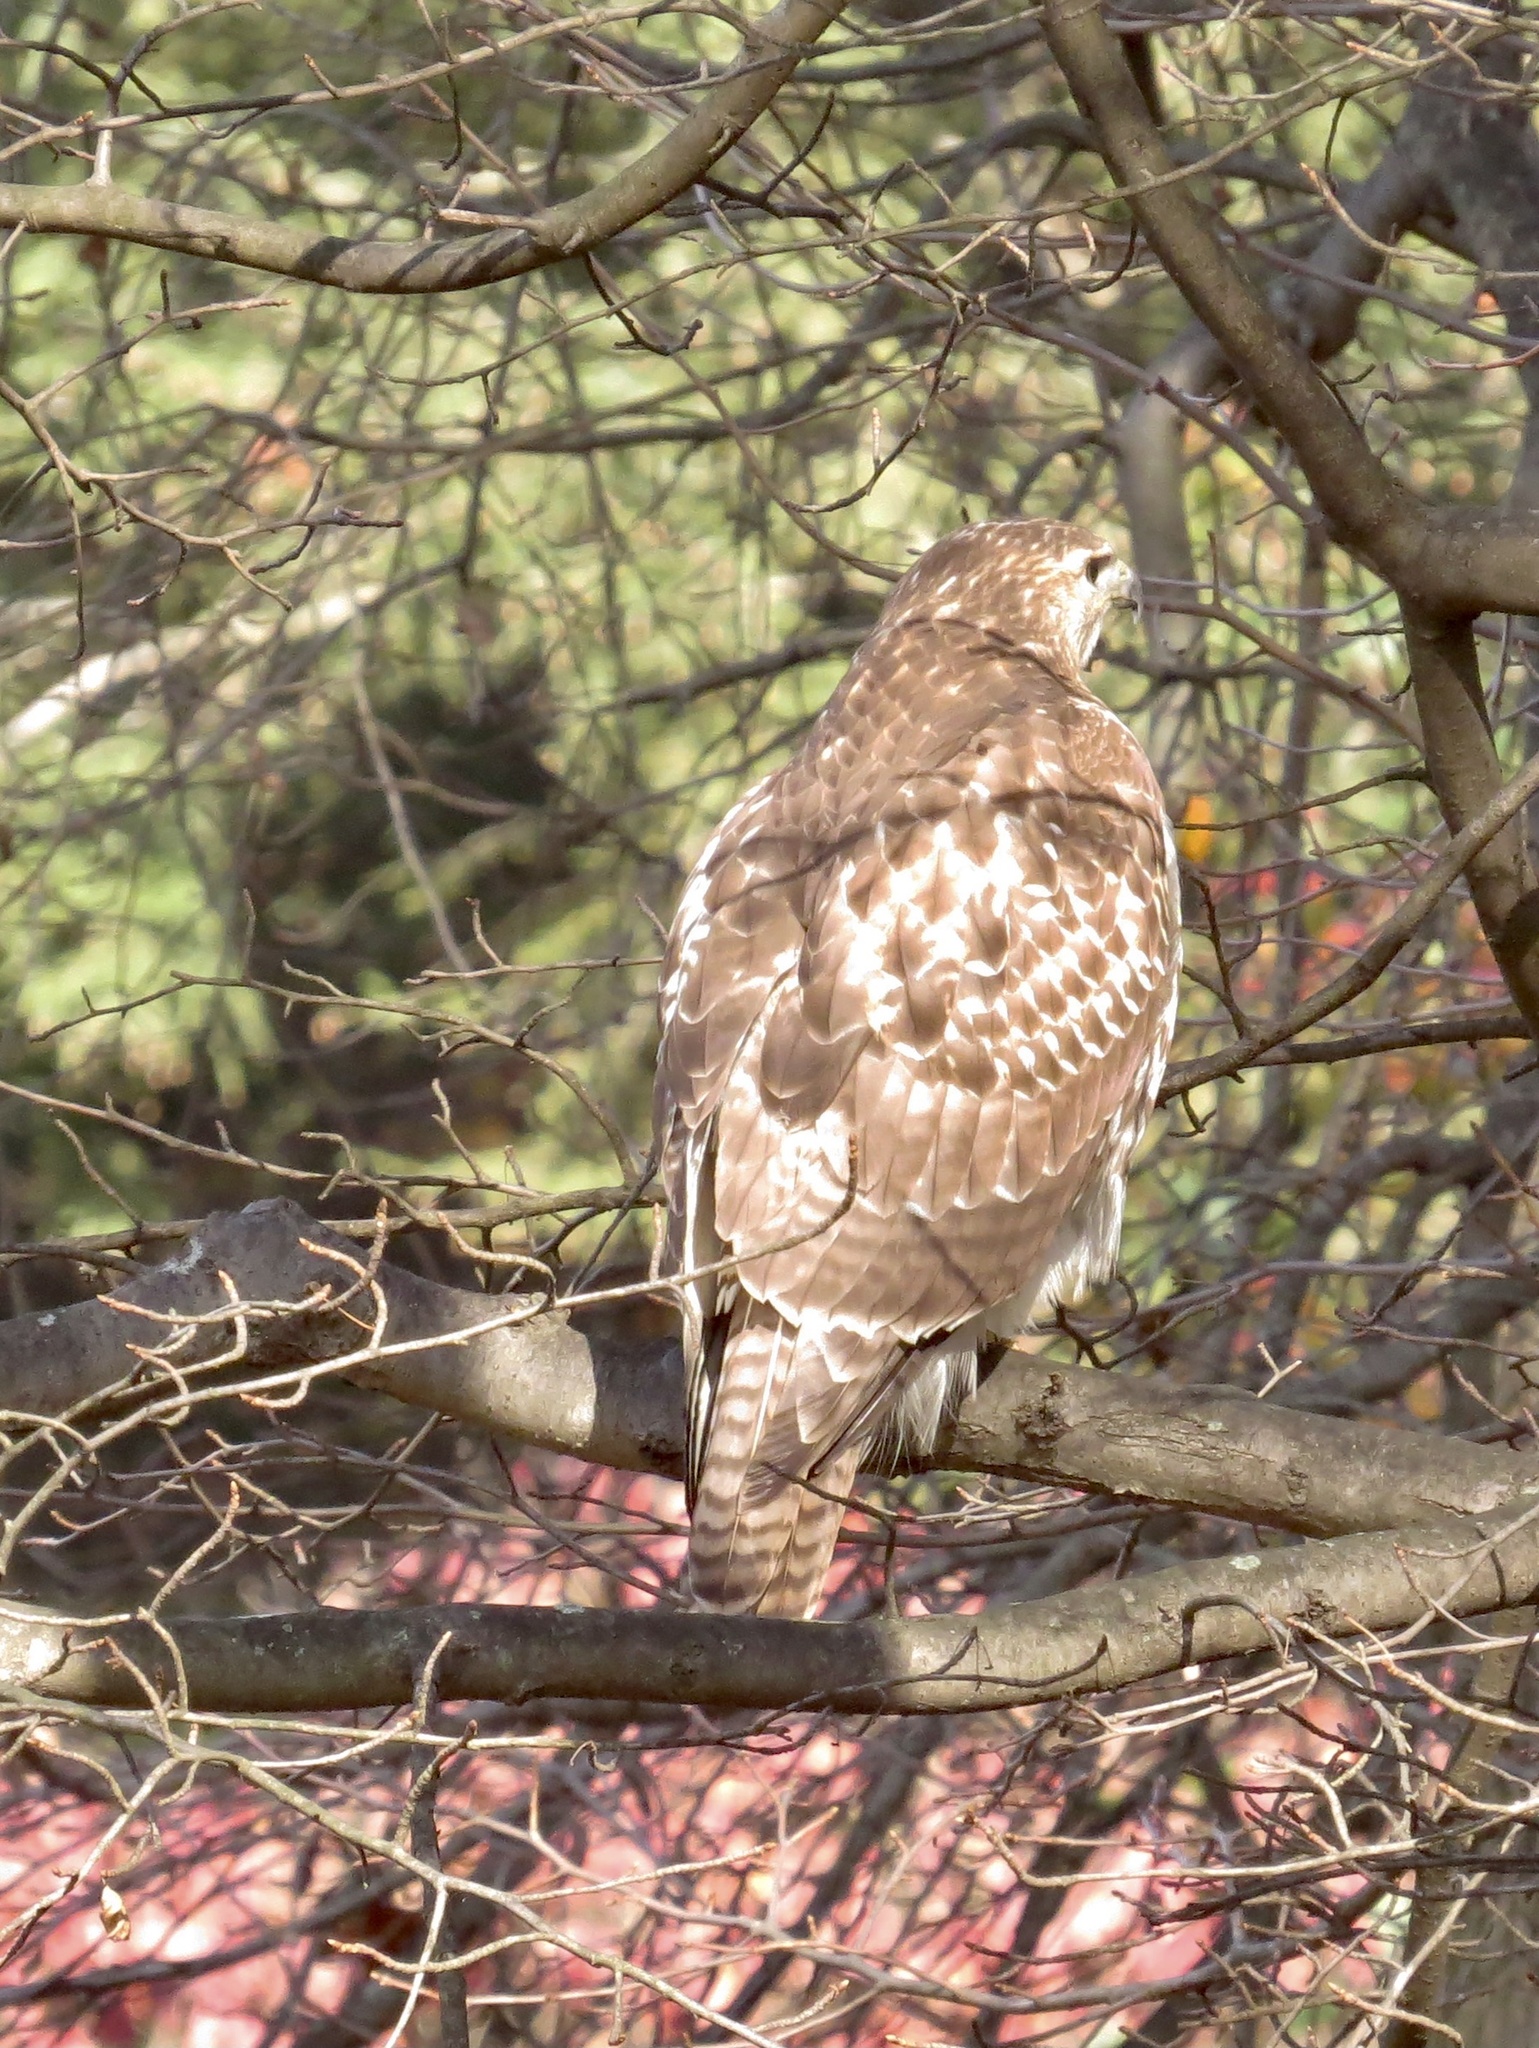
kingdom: Animalia
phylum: Chordata
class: Aves
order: Accipitriformes
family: Accipitridae
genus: Buteo
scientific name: Buteo jamaicensis
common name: Red-tailed hawk
